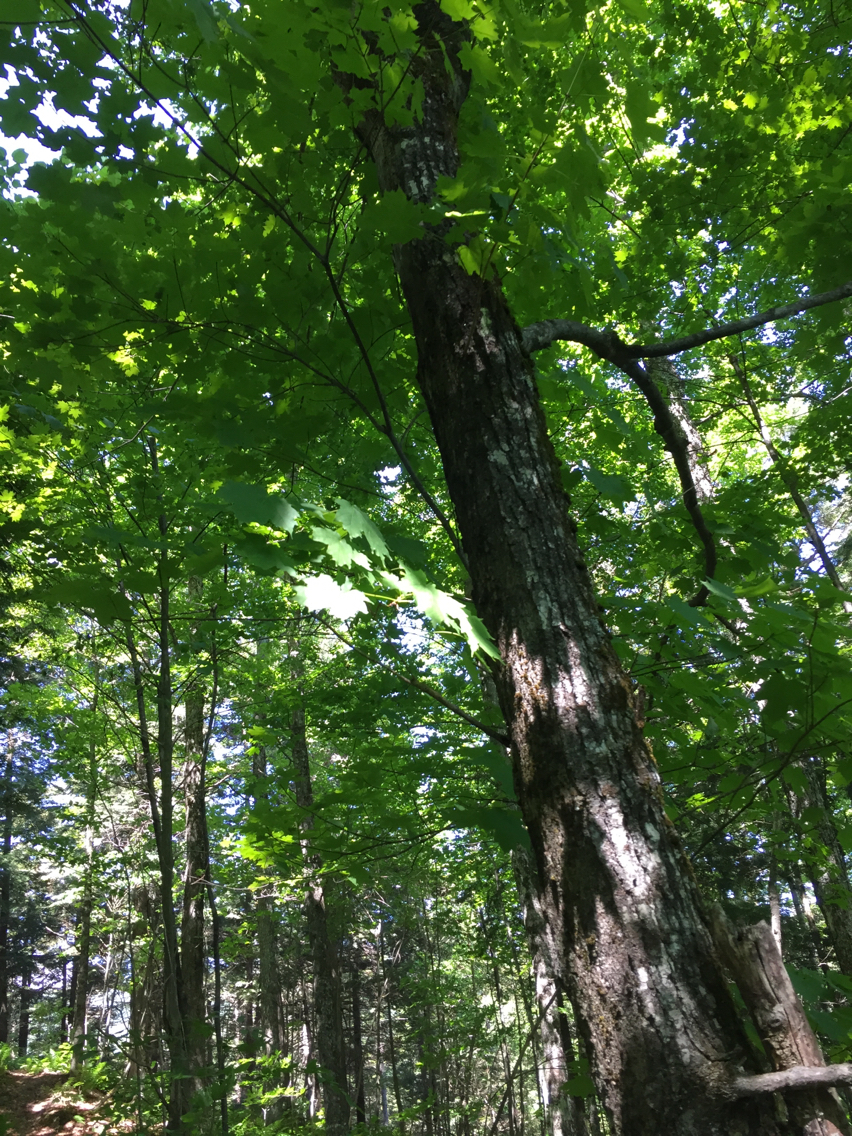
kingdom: Plantae
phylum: Tracheophyta
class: Magnoliopsida
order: Sapindales
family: Sapindaceae
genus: Acer
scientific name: Acer saccharum
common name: Sugar maple
